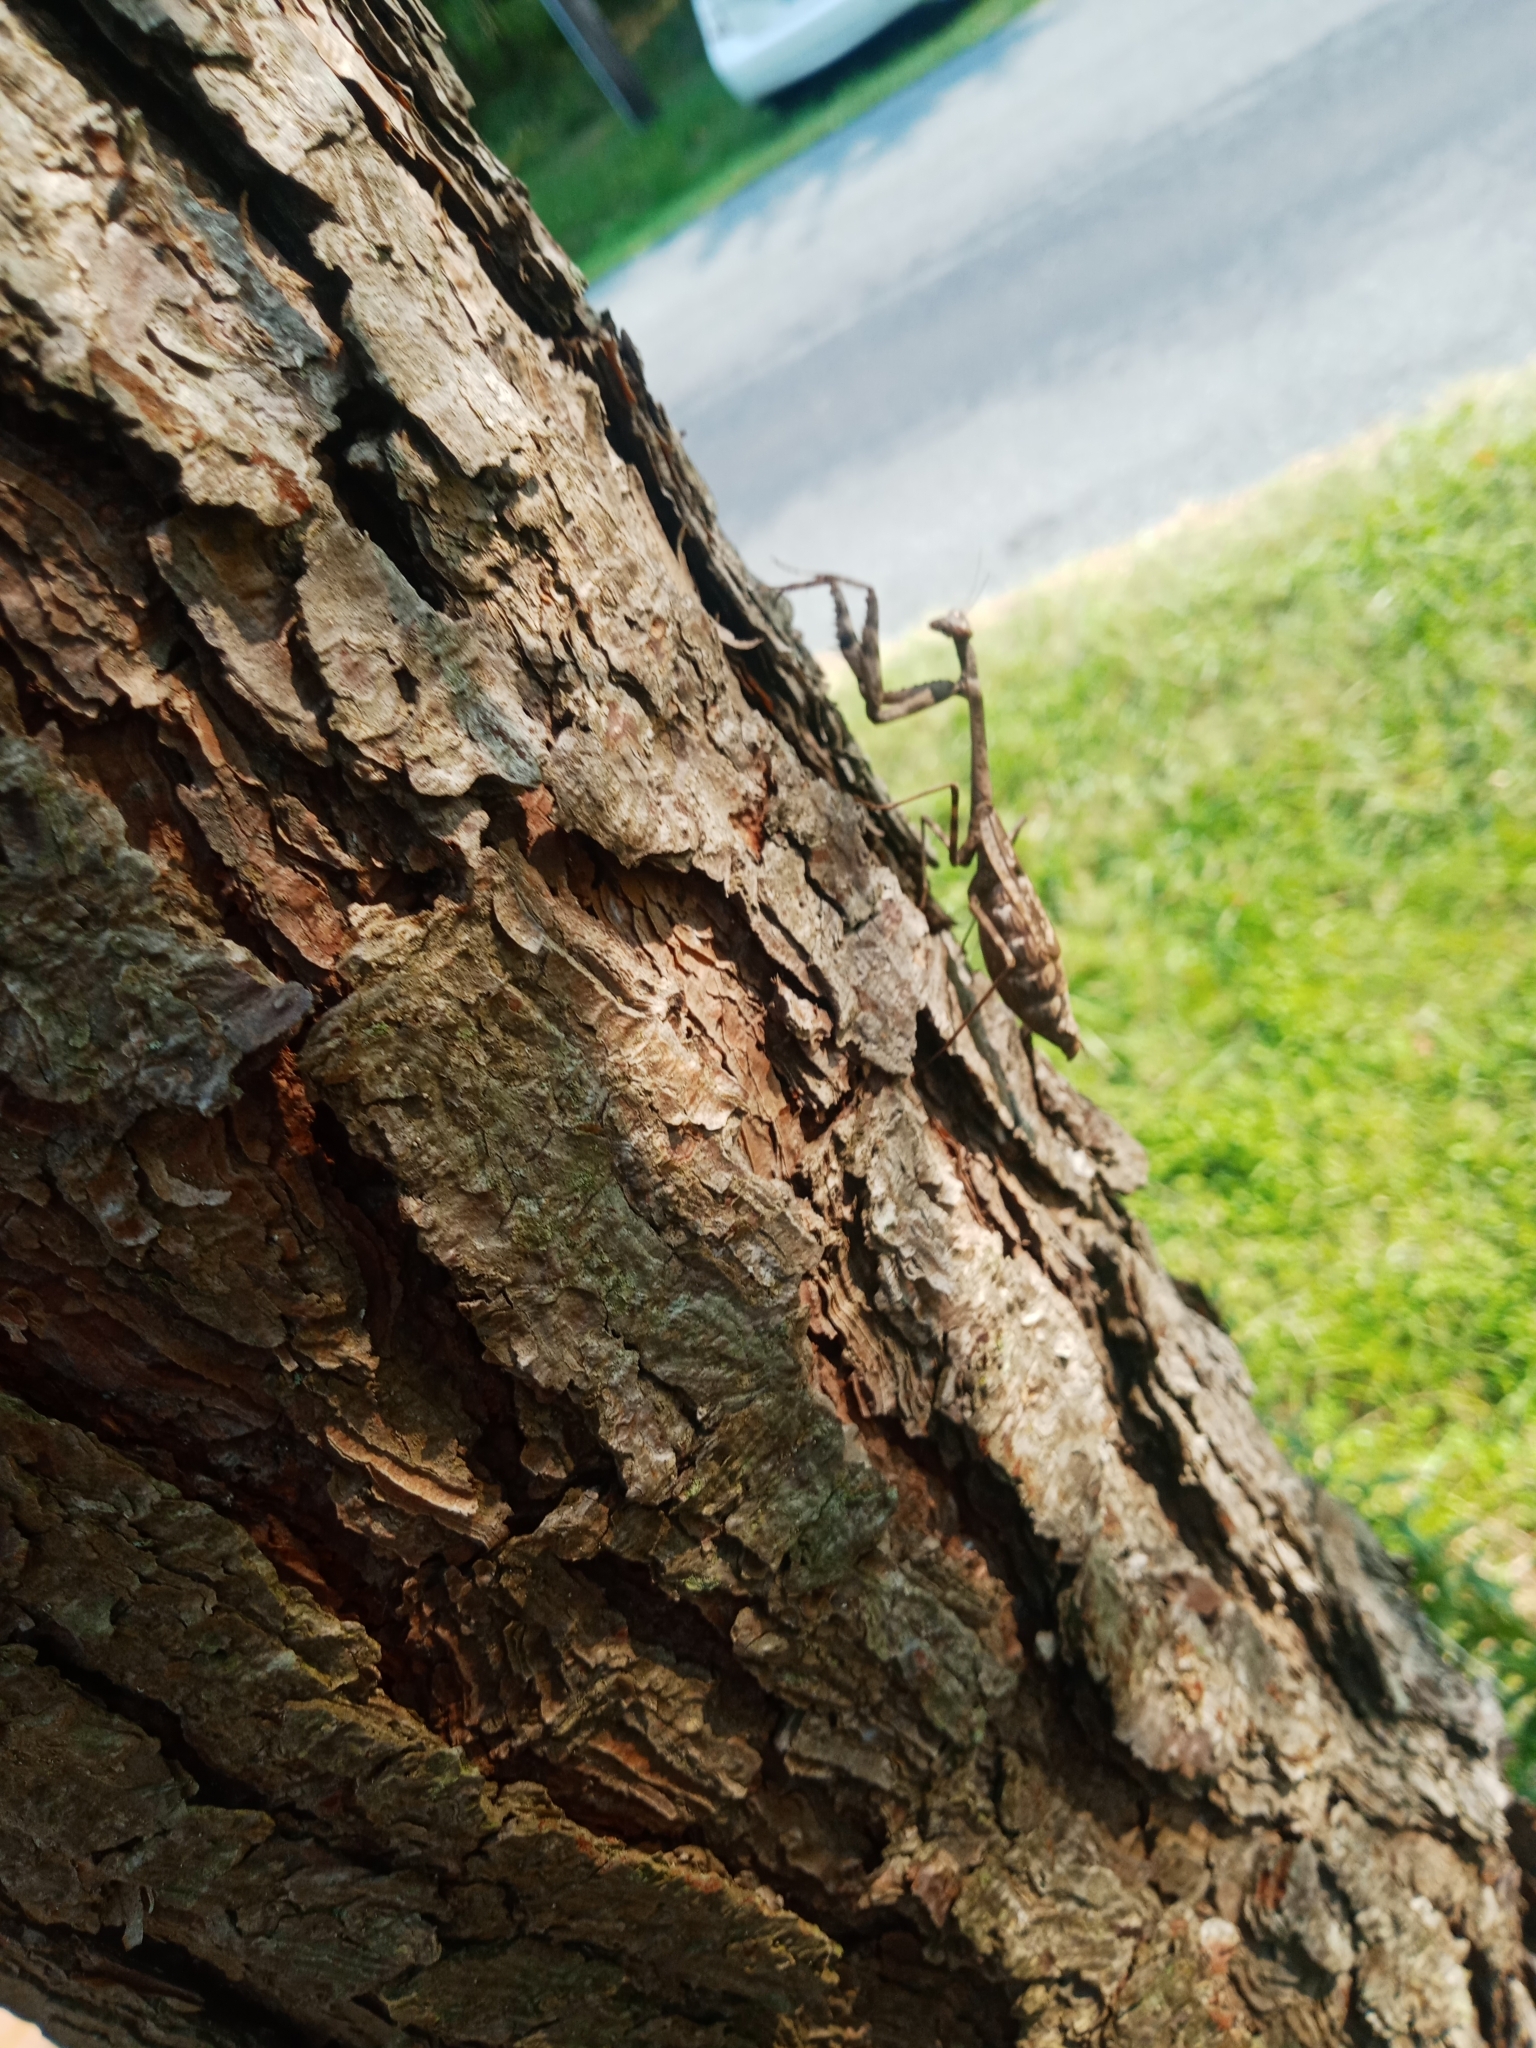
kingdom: Animalia
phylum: Arthropoda
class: Insecta
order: Mantodea
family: Mantidae
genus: Stagmomantis
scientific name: Stagmomantis carolina
